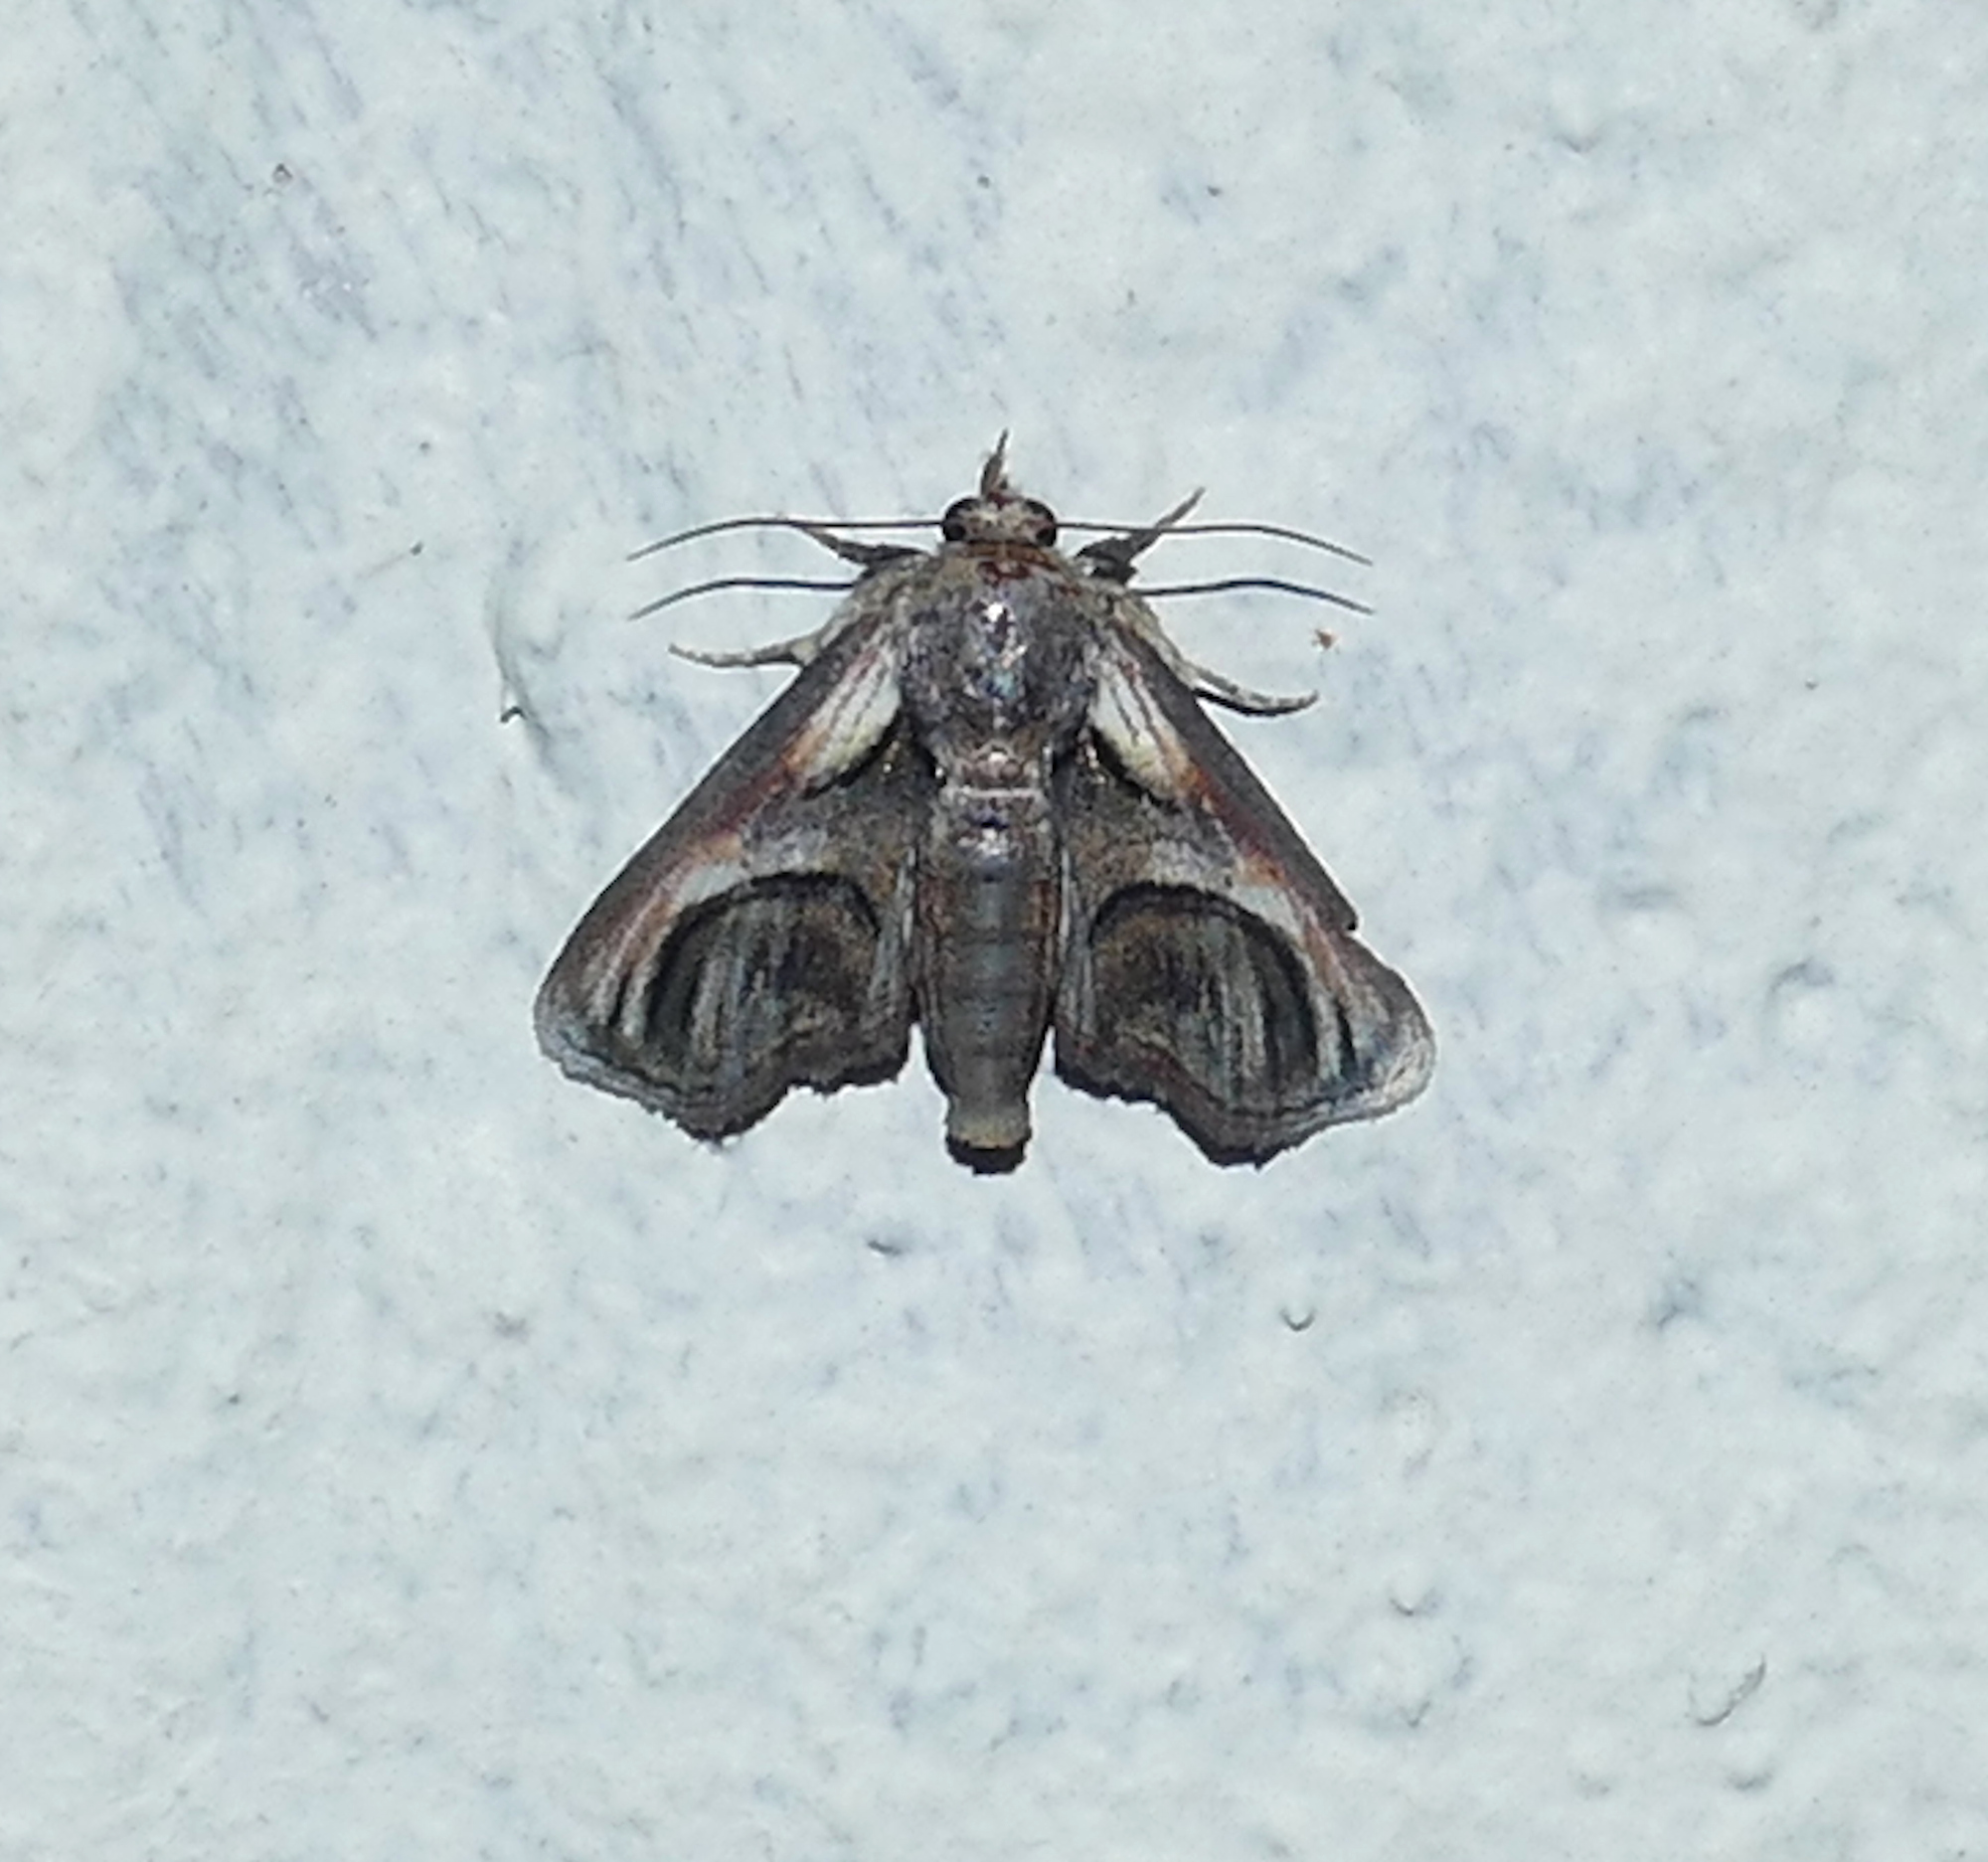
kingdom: Animalia
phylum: Arthropoda
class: Insecta
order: Lepidoptera
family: Euteliidae
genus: Paectes
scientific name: Paectes oculatrix
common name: Eyed paectes moth
